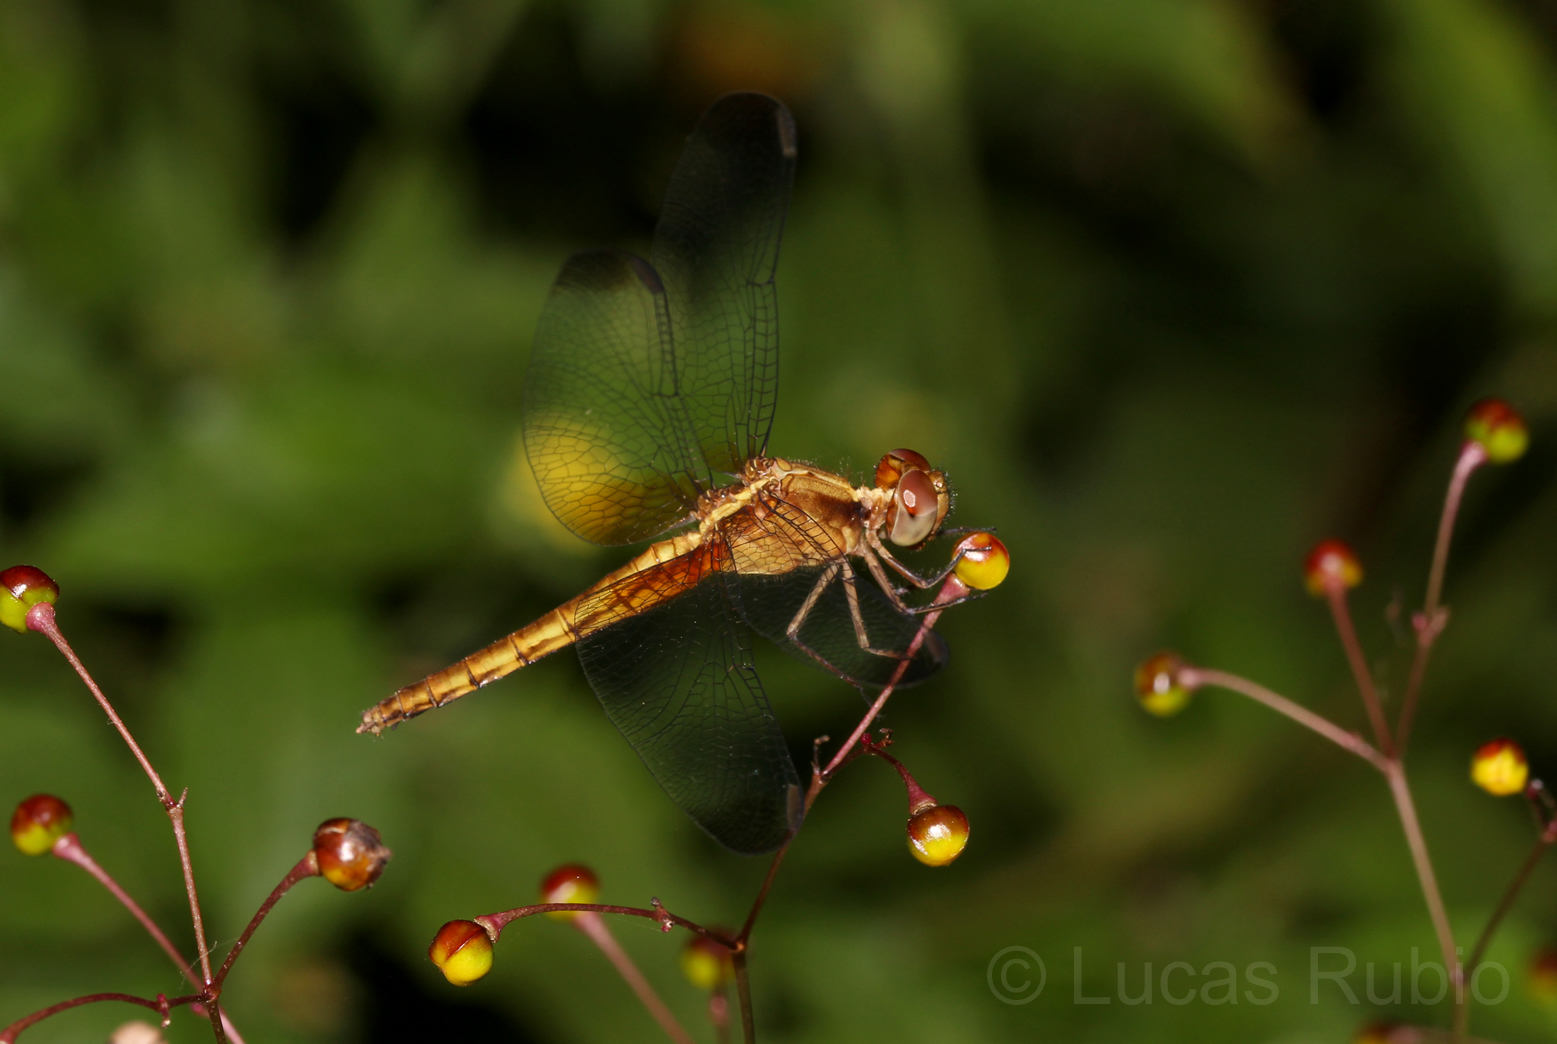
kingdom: Animalia
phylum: Arthropoda
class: Insecta
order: Odonata
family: Libellulidae
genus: Erythrodiplax
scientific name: Erythrodiplax atroterminata
